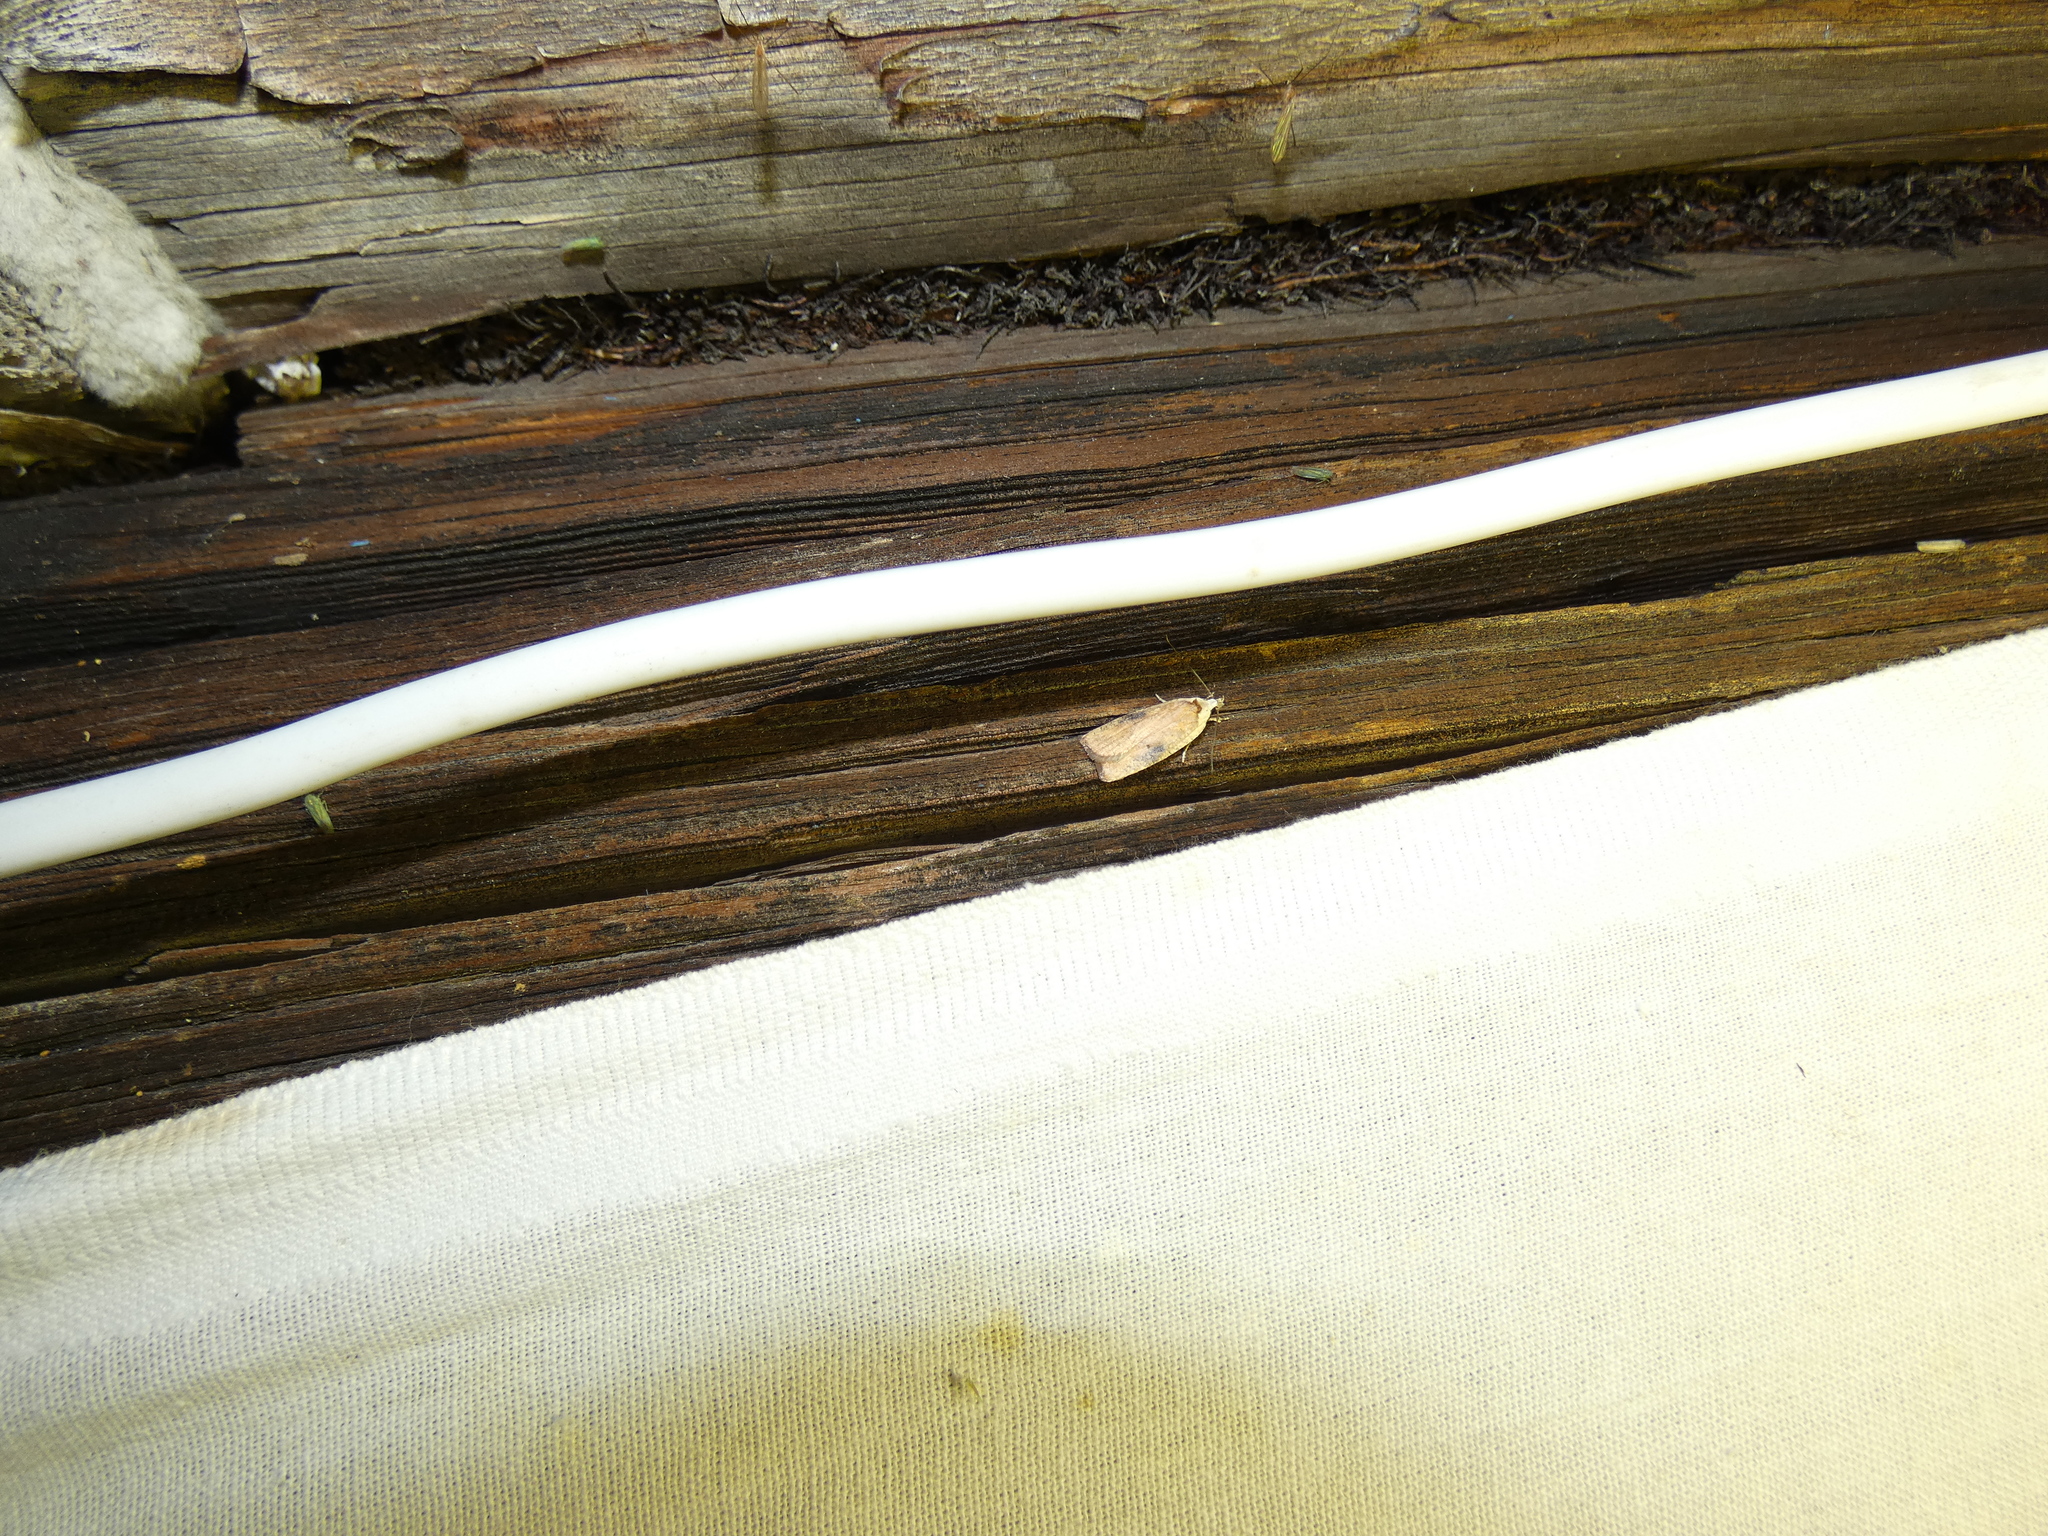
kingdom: Animalia
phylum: Arthropoda
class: Insecta
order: Lepidoptera
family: Depressariidae
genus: Agonopterix
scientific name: Agonopterix nervosa
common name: Gorse tip moth
